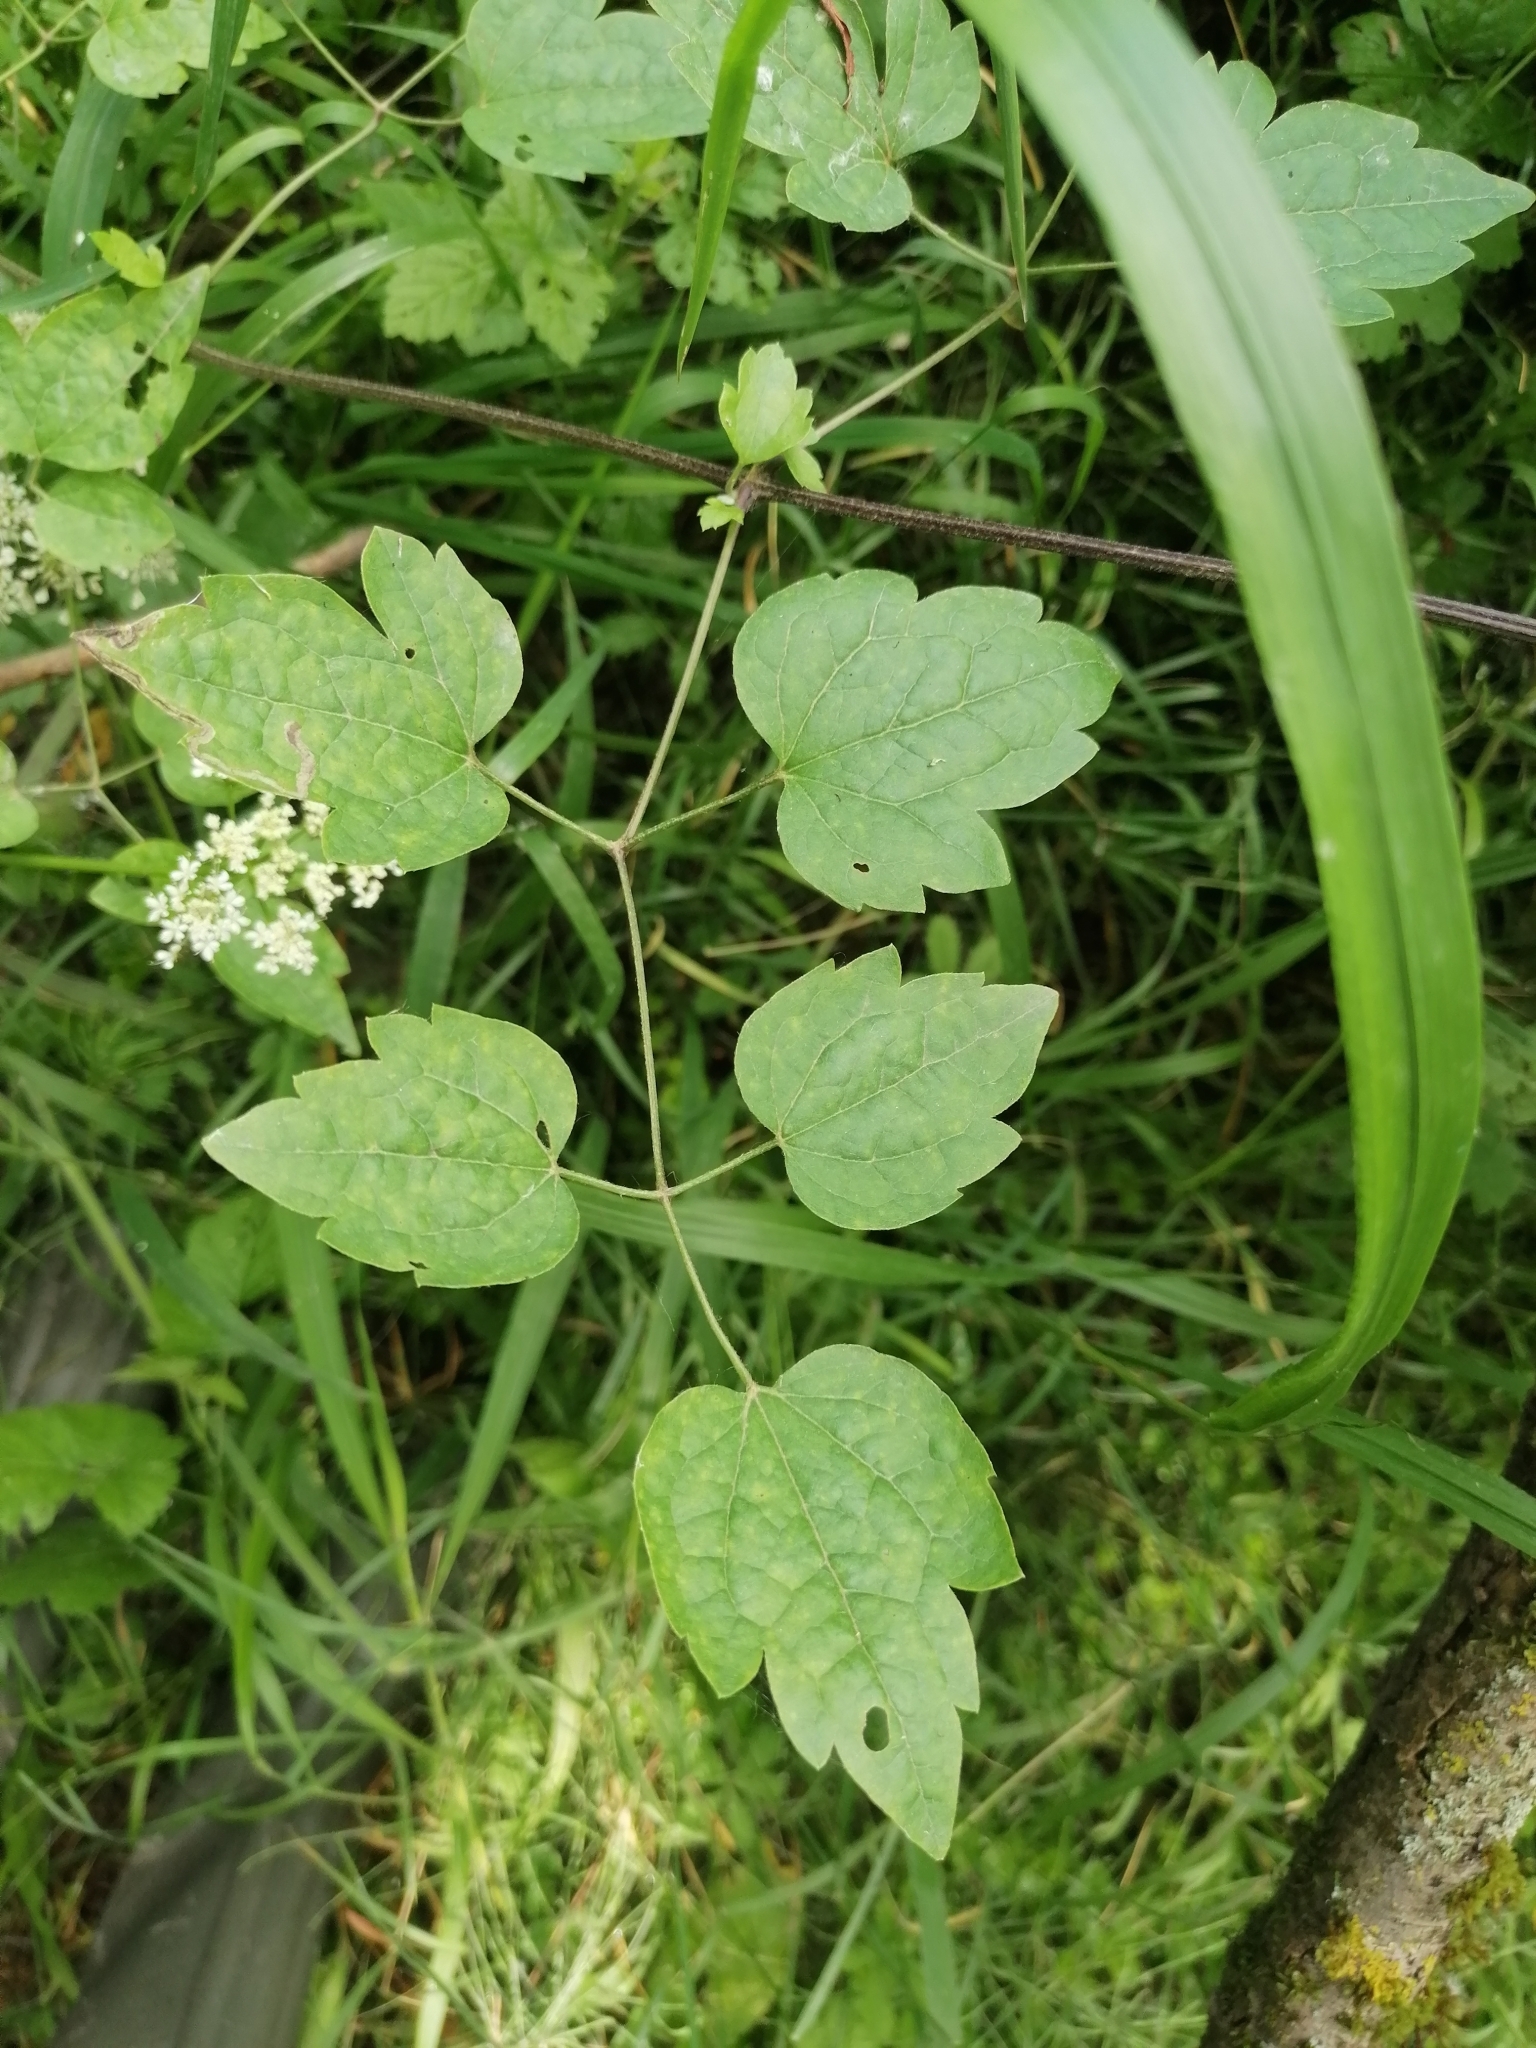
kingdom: Plantae
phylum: Tracheophyta
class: Magnoliopsida
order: Ranunculales
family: Ranunculaceae
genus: Clematis
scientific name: Clematis vitalba
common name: Evergreen clematis
